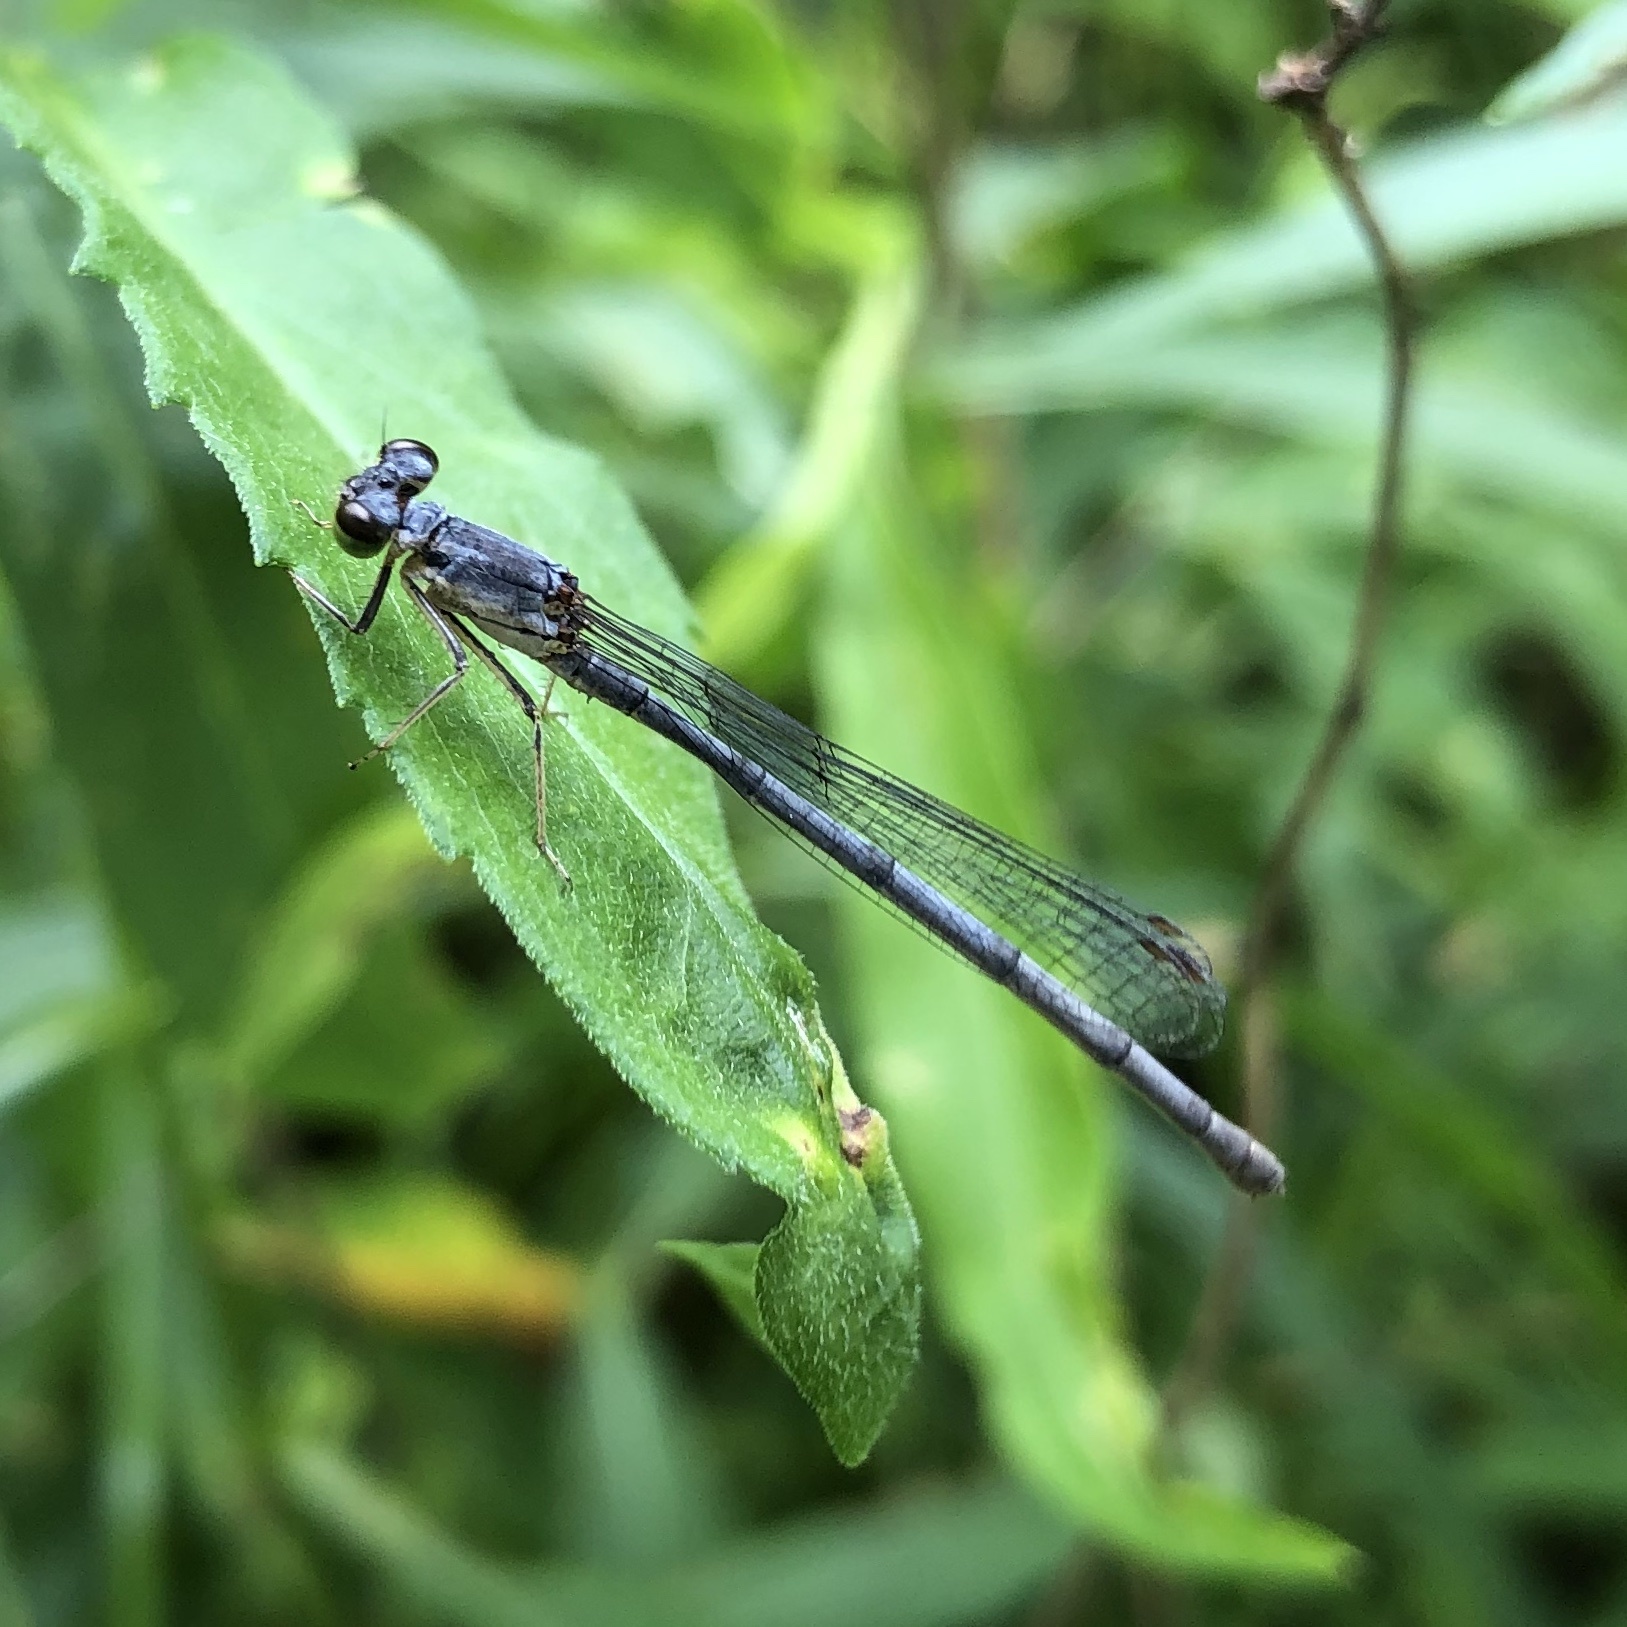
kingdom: Animalia
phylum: Arthropoda
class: Insecta
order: Odonata
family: Coenagrionidae
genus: Ischnura
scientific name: Ischnura posita
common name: Fragile forktail
